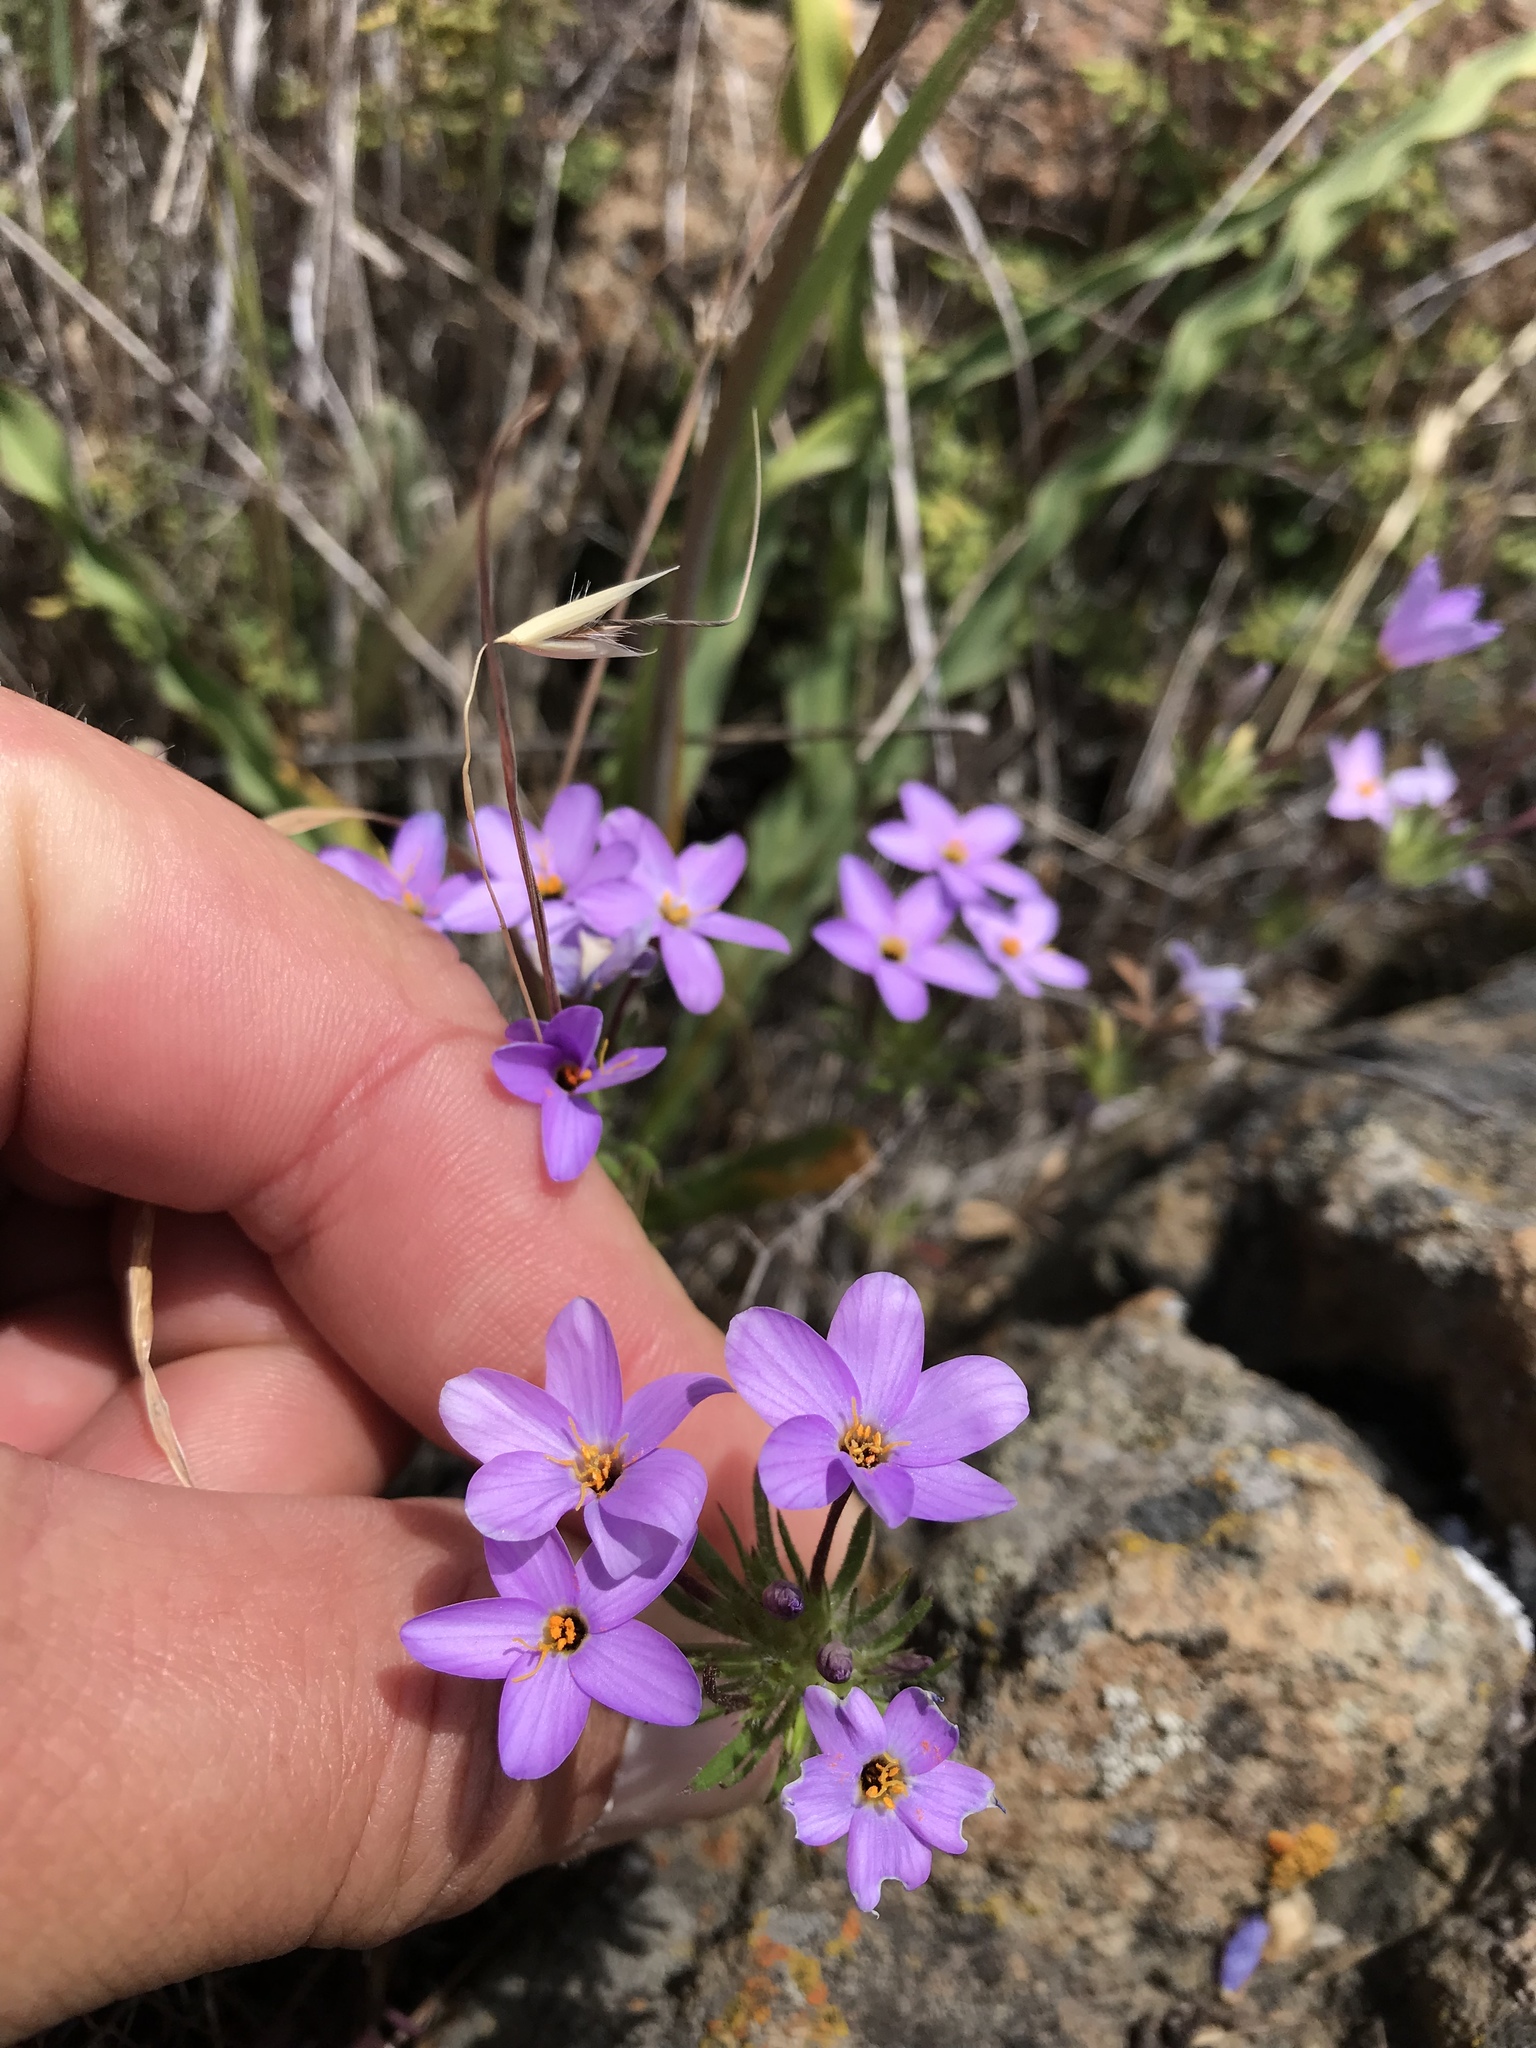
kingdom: Plantae
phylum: Tracheophyta
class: Magnoliopsida
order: Ericales
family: Polemoniaceae
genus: Leptosiphon
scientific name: Leptosiphon androsaceus
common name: False babystars
